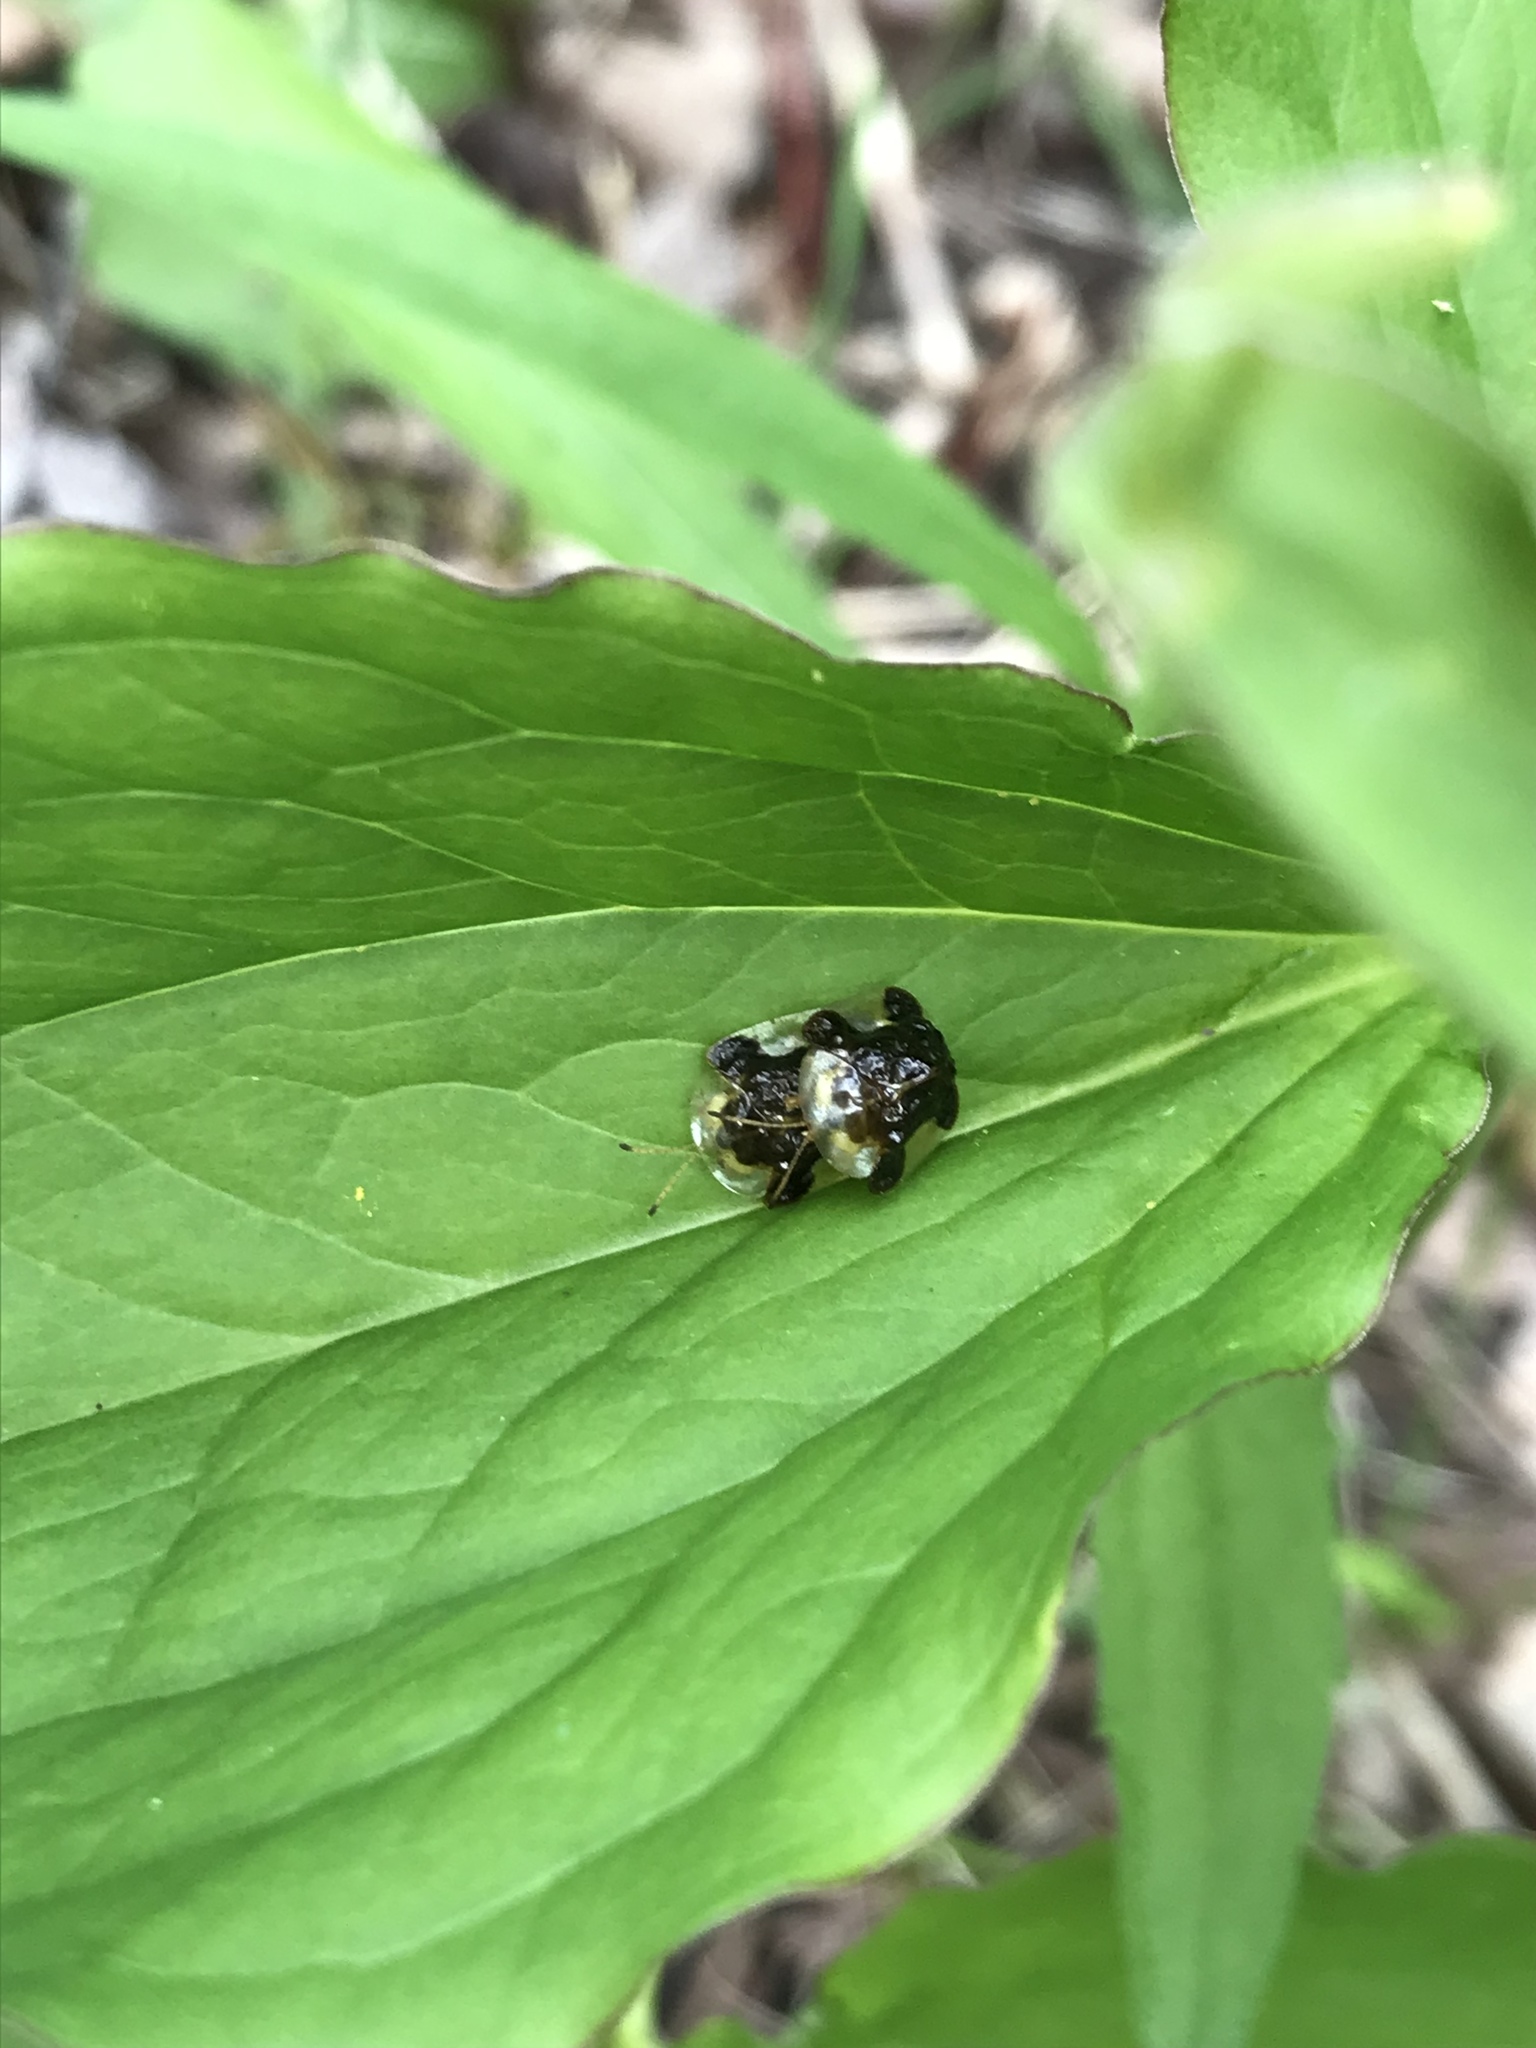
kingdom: Animalia
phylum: Arthropoda
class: Insecta
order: Coleoptera
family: Chrysomelidae
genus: Helocassis
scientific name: Helocassis clavata
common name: Clavate tortoise beetle
